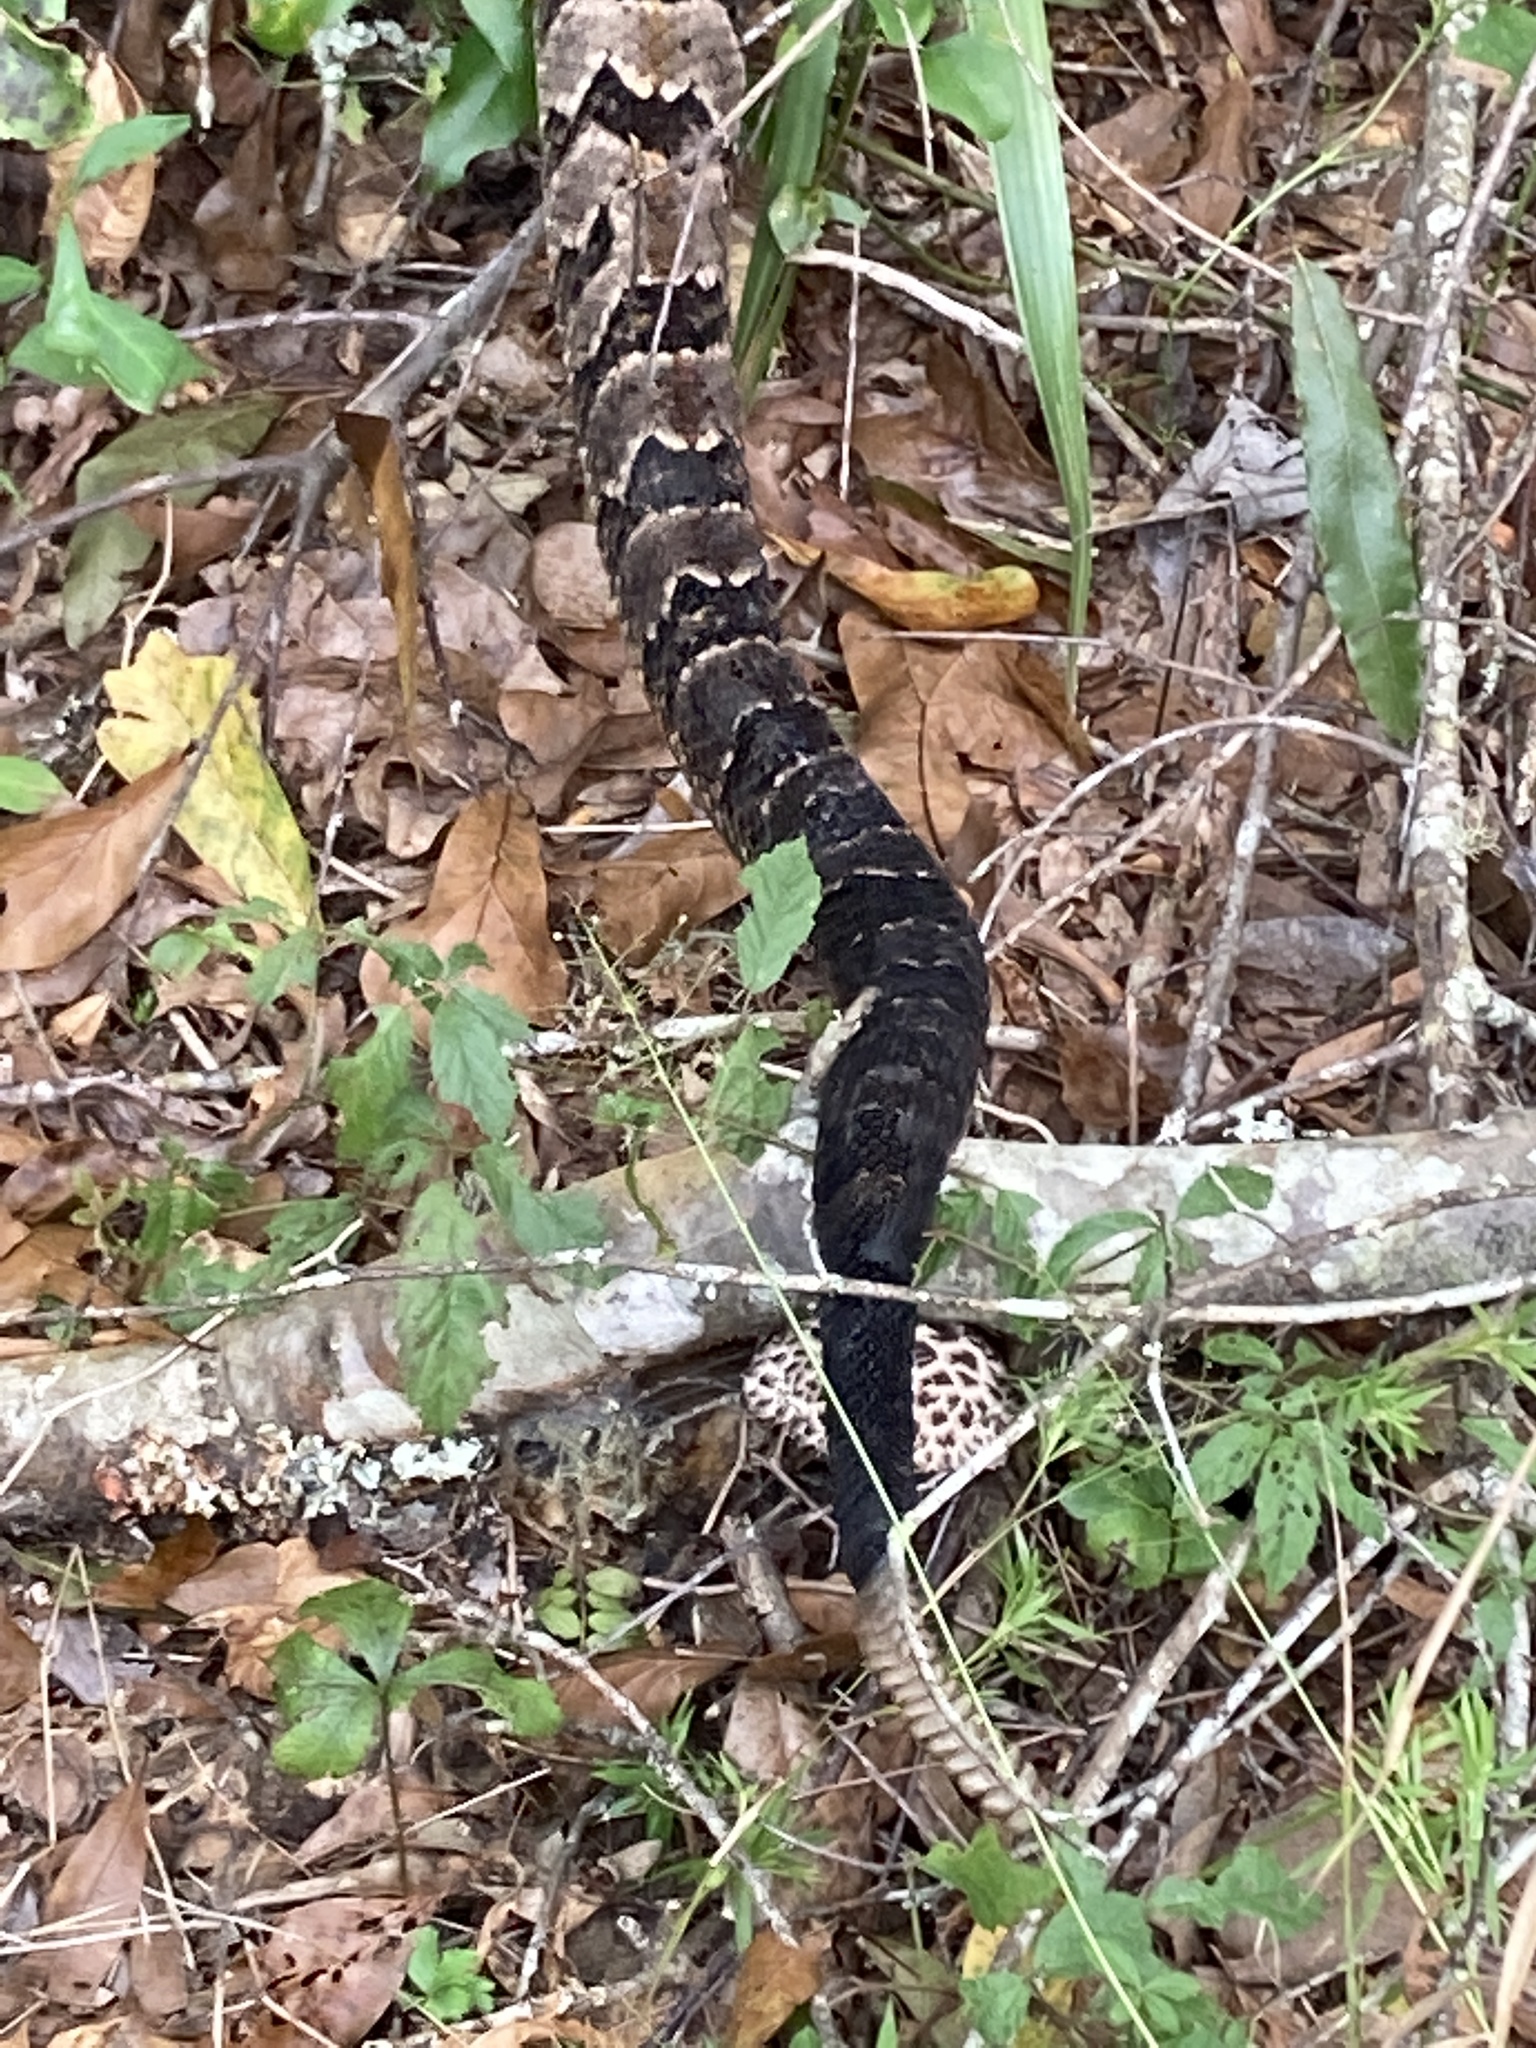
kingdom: Animalia
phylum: Chordata
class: Squamata
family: Viperidae
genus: Crotalus
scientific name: Crotalus horridus
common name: Timber rattlesnake
